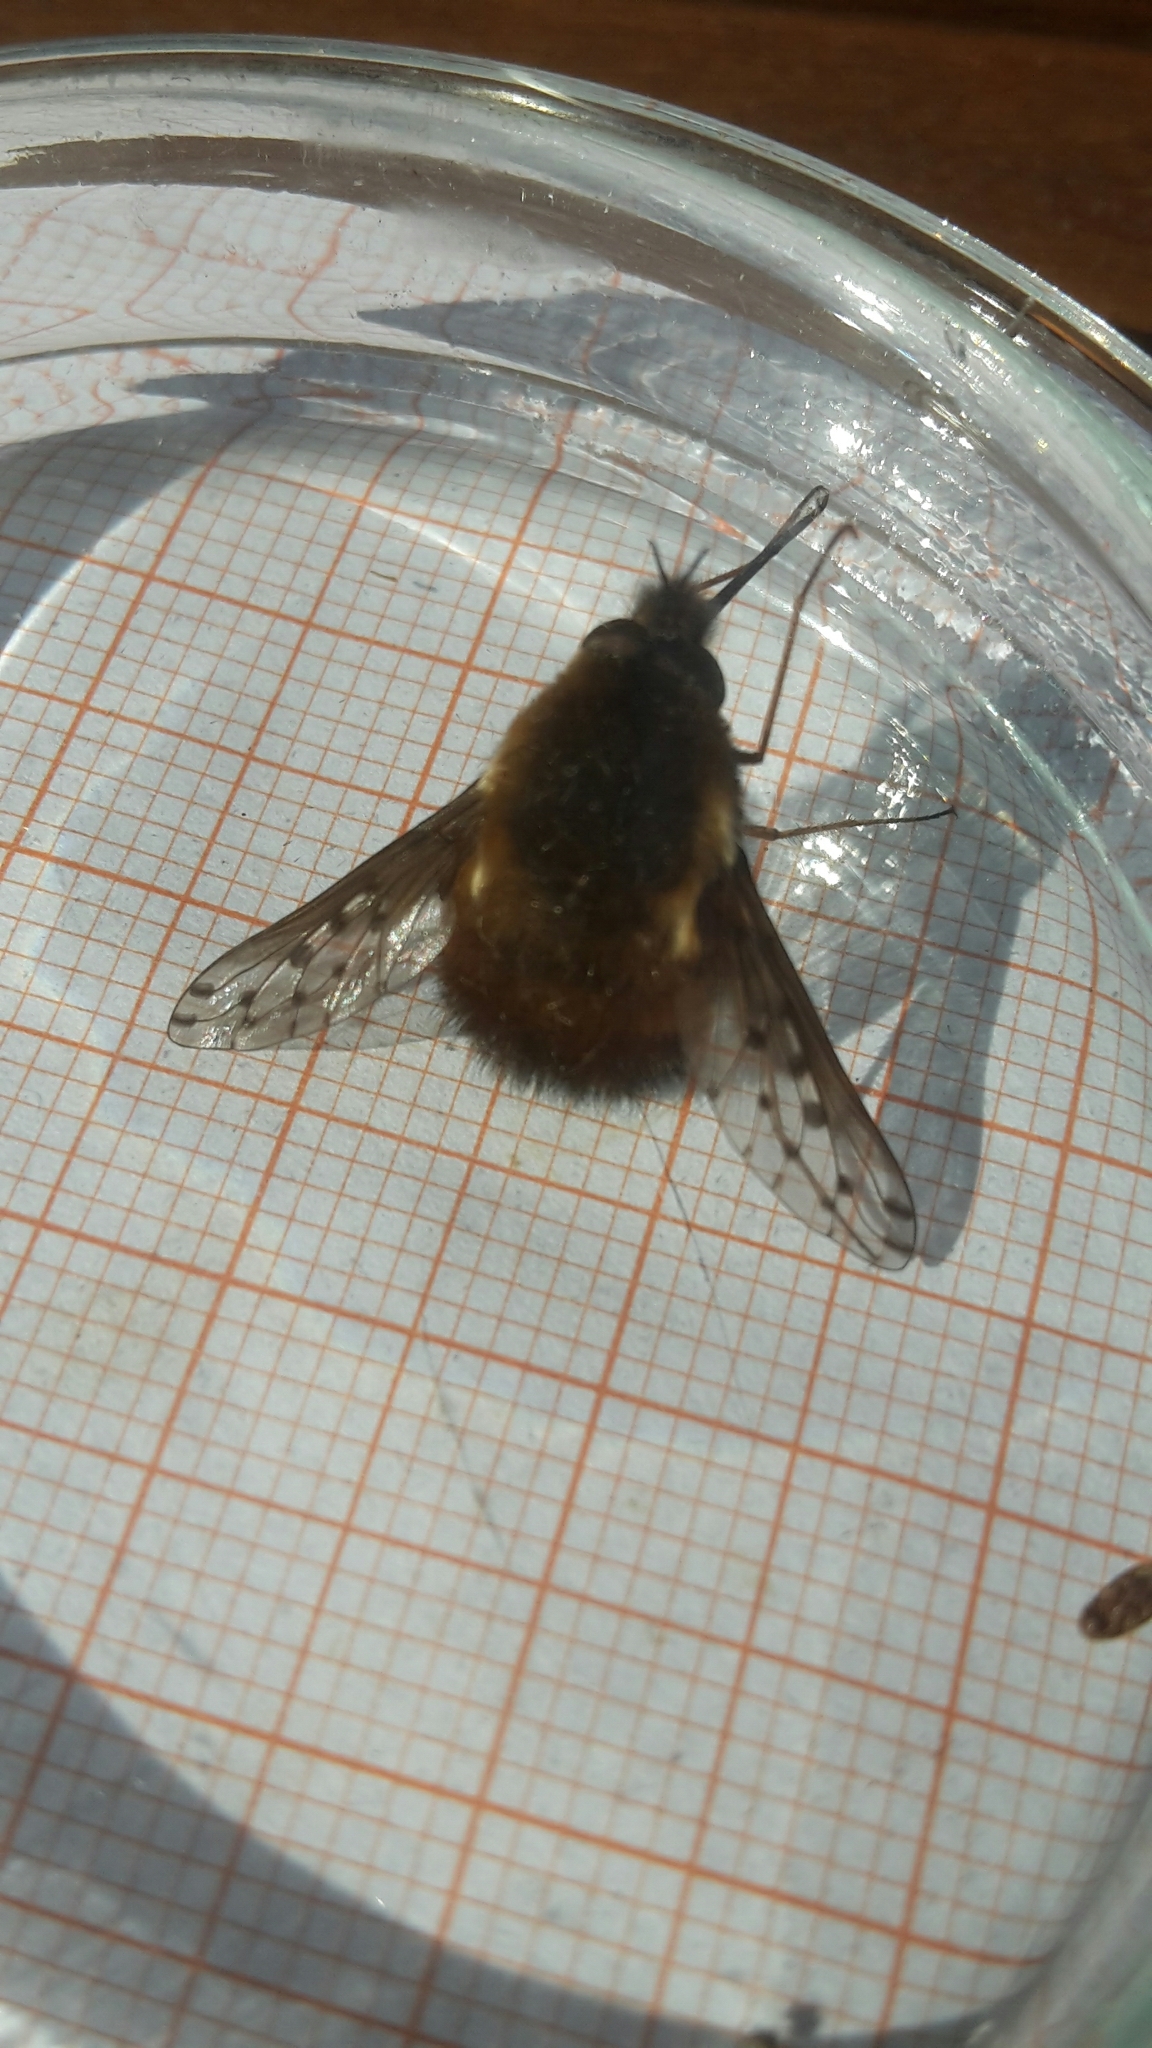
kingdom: Animalia
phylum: Arthropoda
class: Insecta
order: Diptera
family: Bombyliidae
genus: Bombylius
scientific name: Bombylius discolor
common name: Dotted bee-fly
